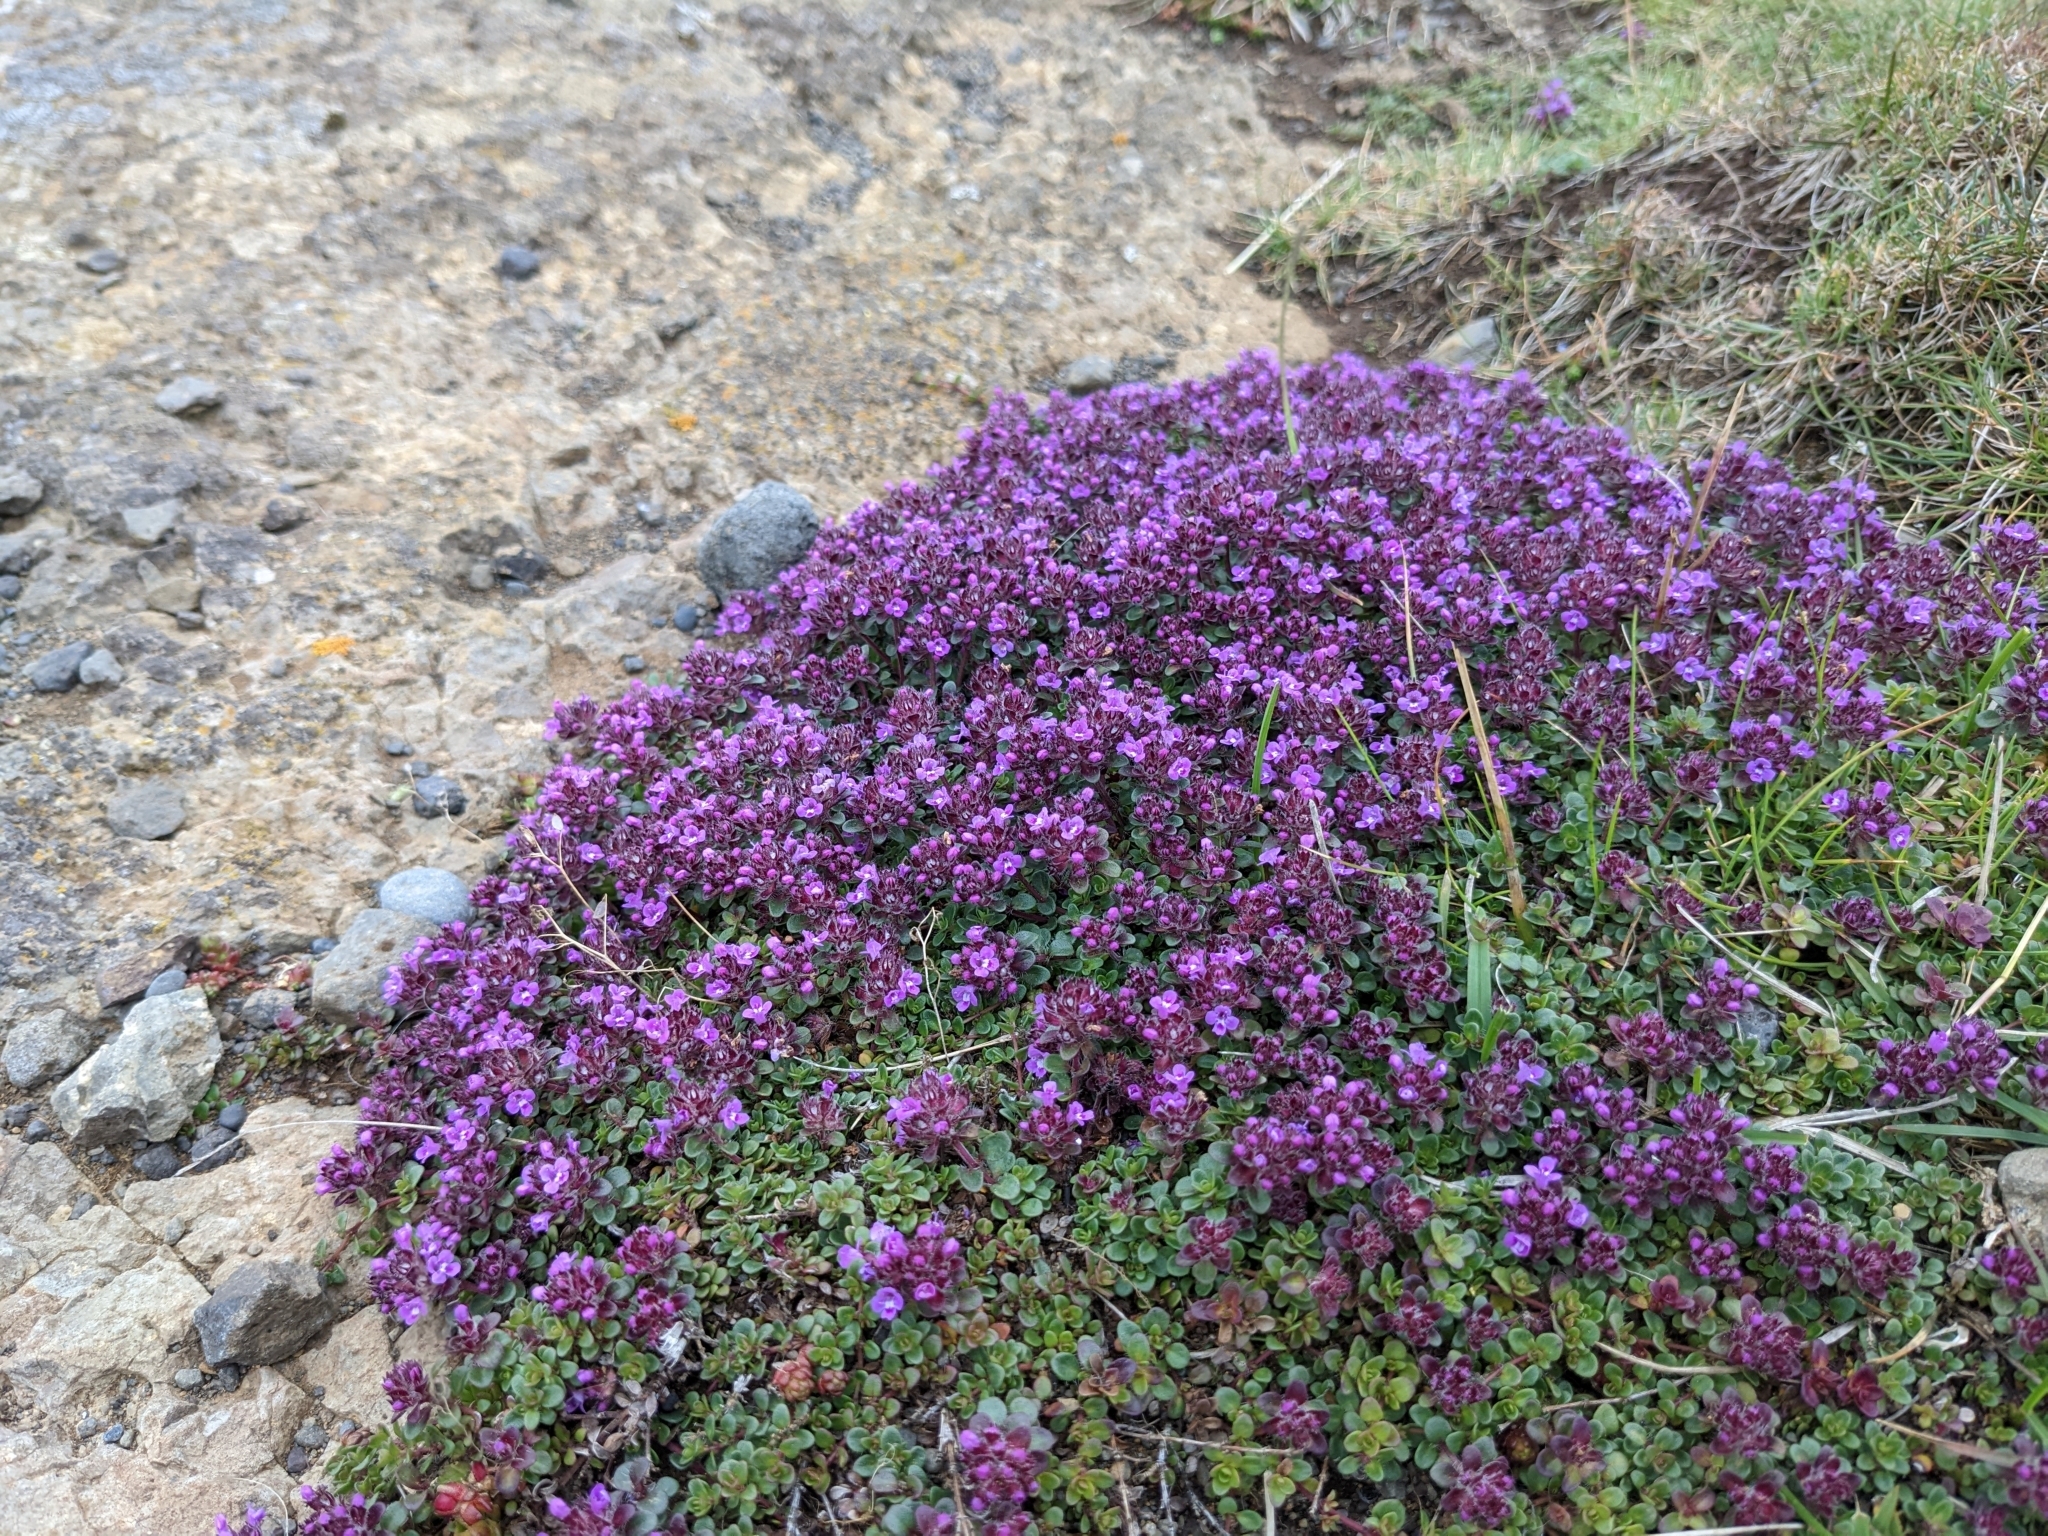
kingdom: Plantae
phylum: Tracheophyta
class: Magnoliopsida
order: Lamiales
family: Lamiaceae
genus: Thymus
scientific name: Thymus praecox
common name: Wild thyme
